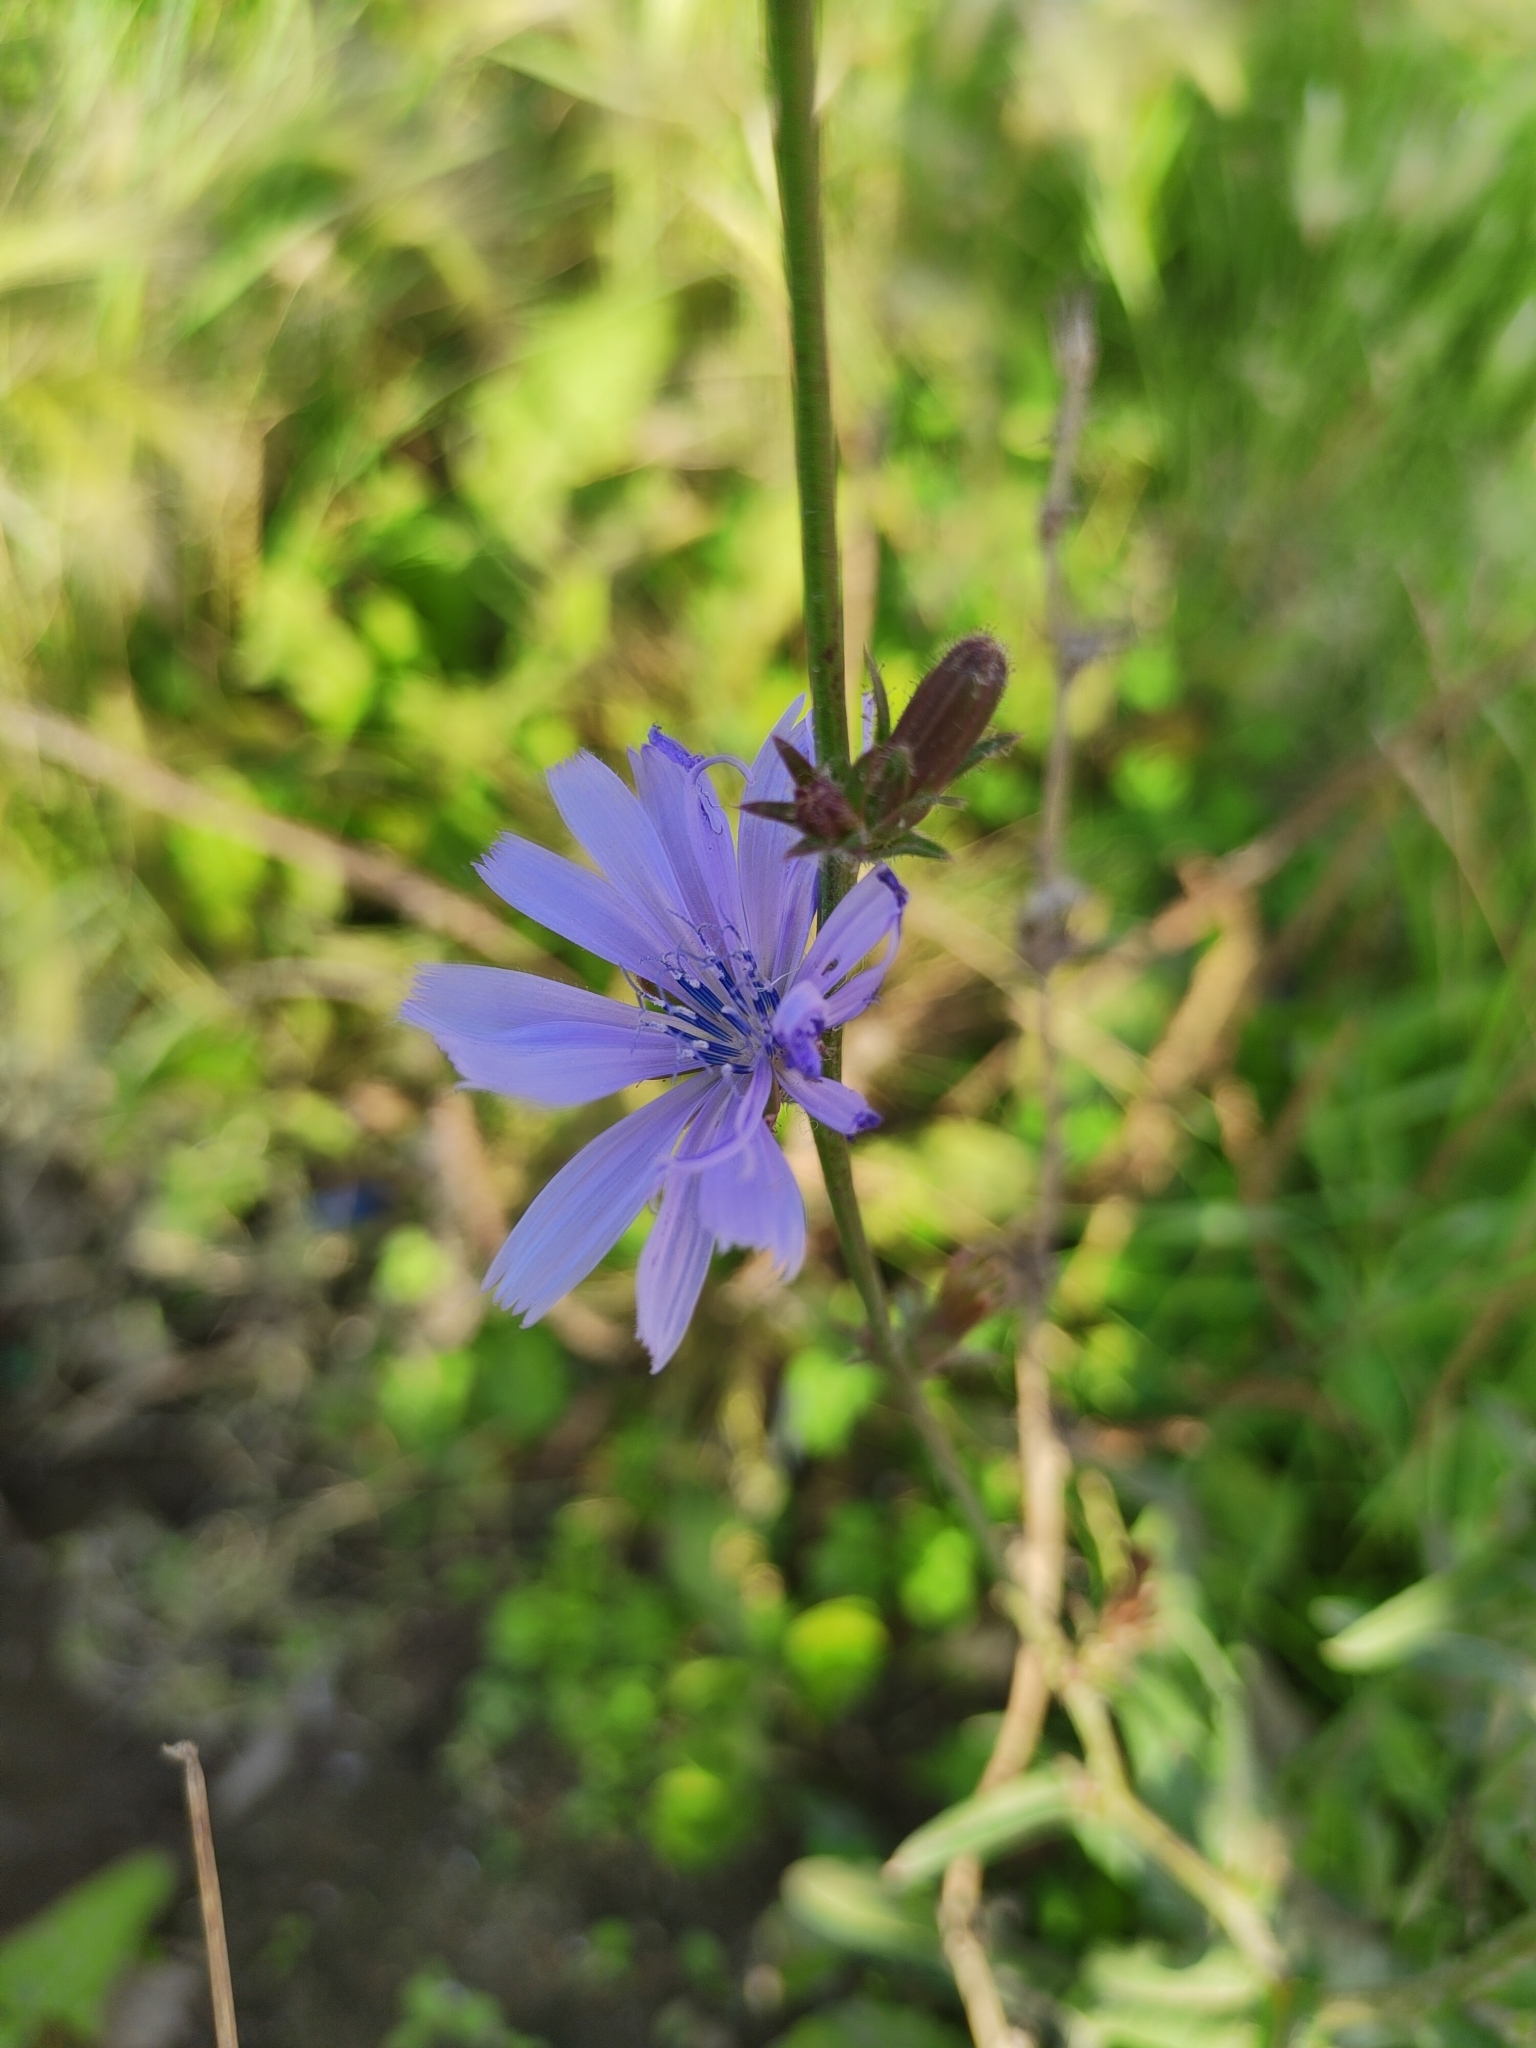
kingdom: Plantae
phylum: Tracheophyta
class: Magnoliopsida
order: Asterales
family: Asteraceae
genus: Cichorium
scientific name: Cichorium intybus
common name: Chicory
